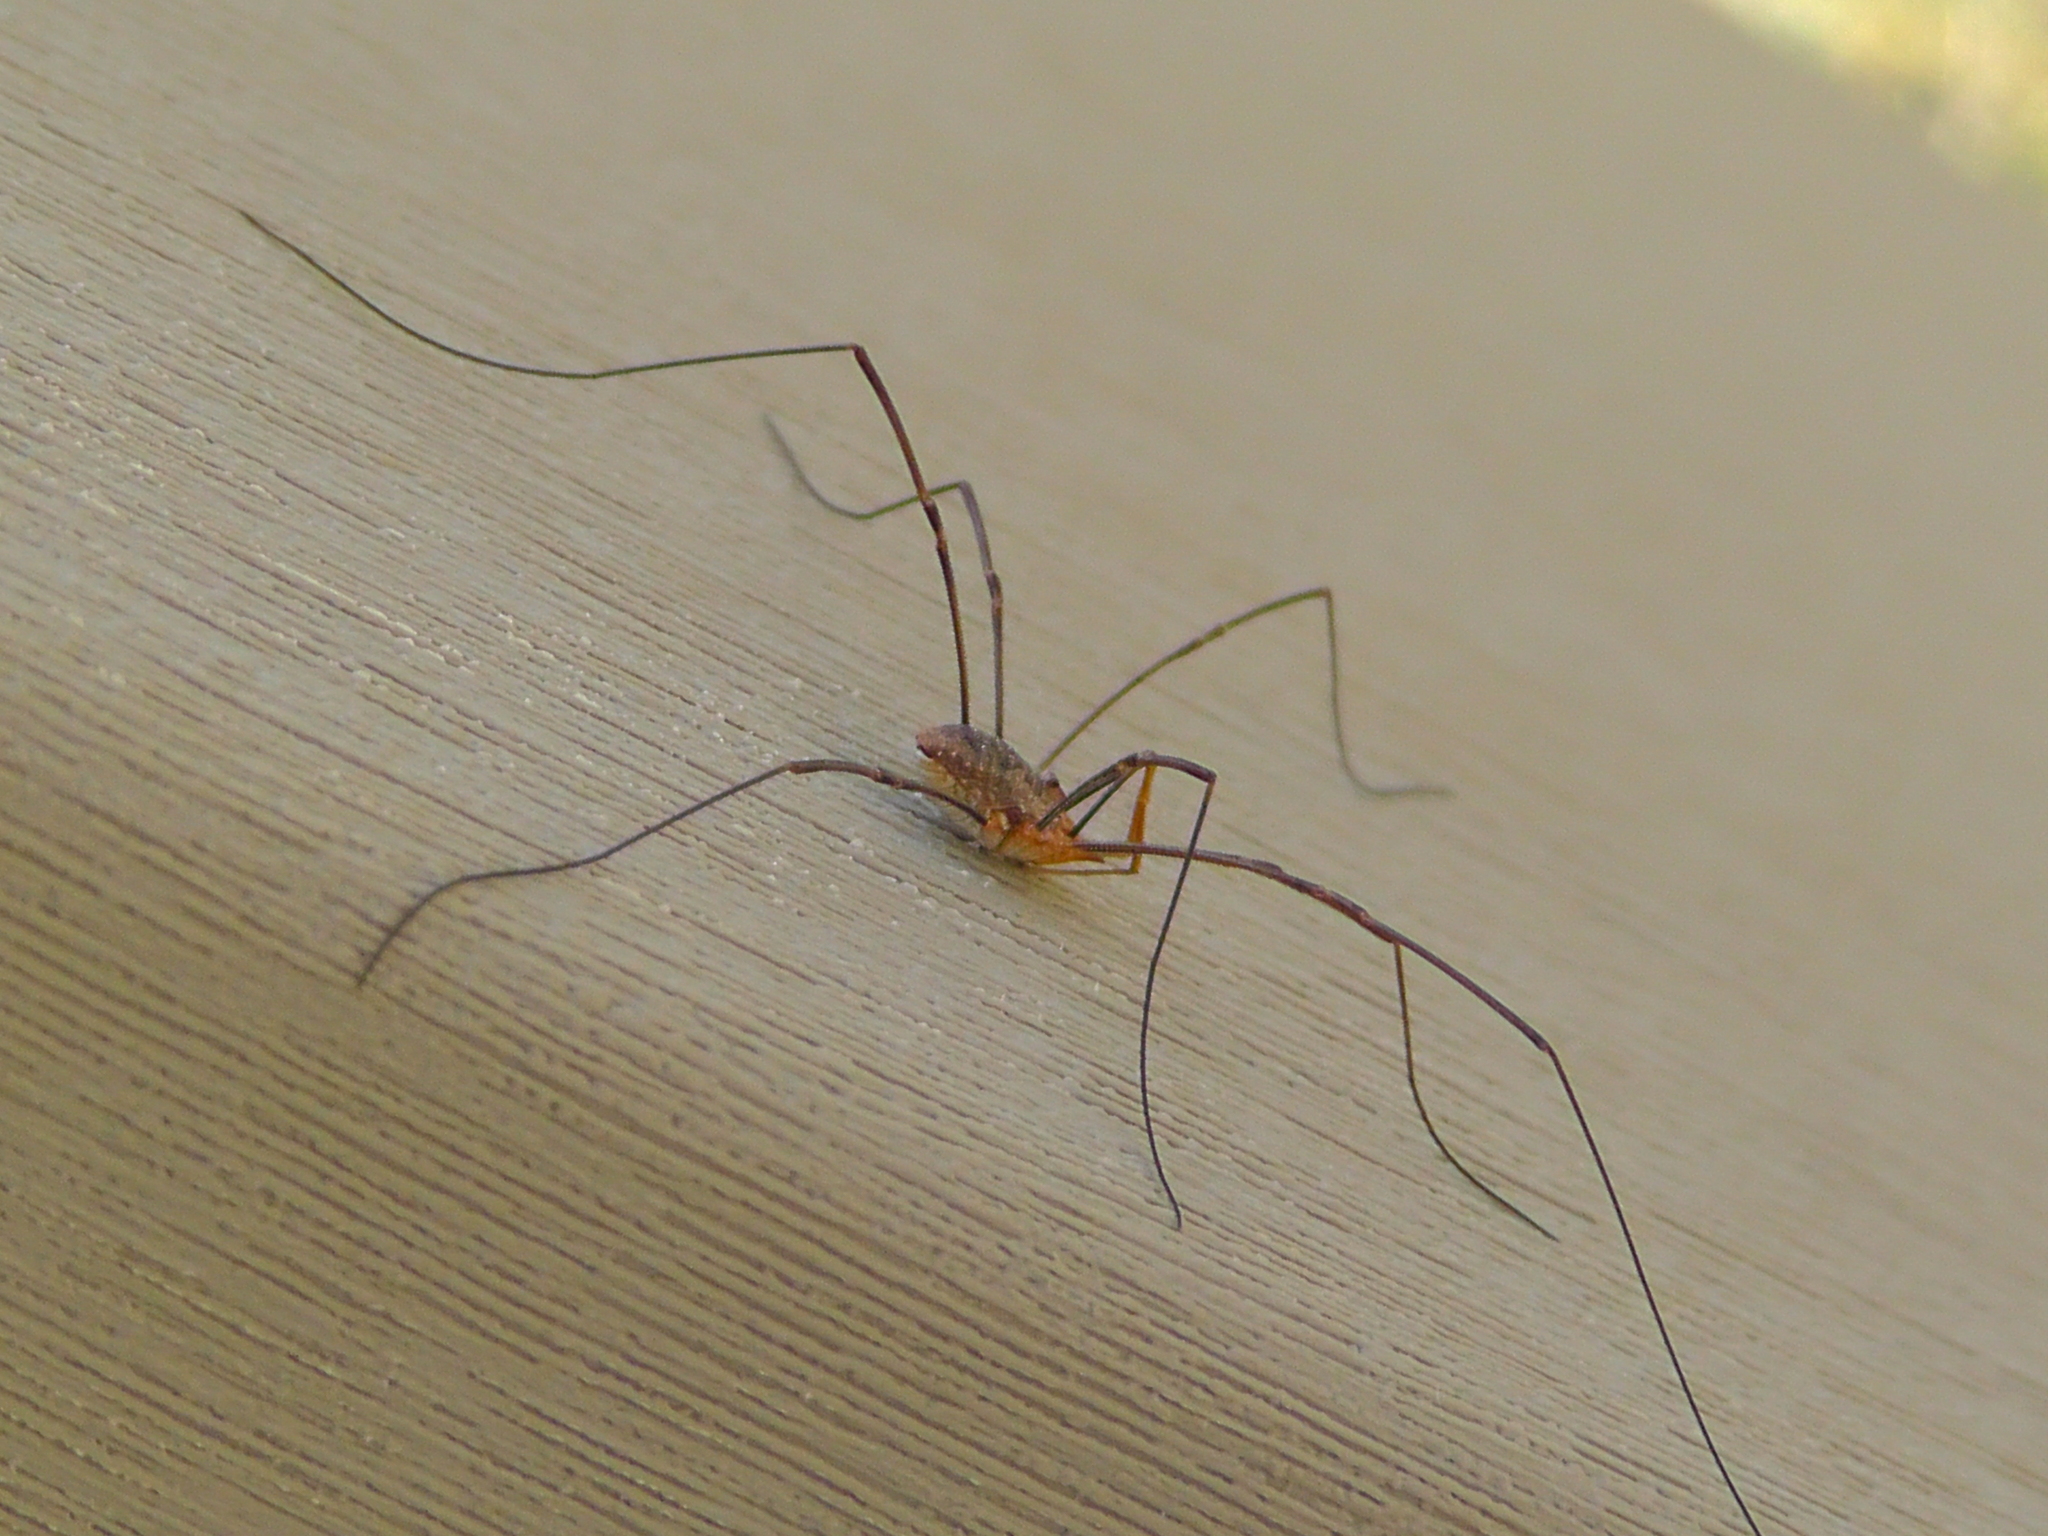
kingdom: Animalia
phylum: Arthropoda
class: Arachnida
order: Opiliones
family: Phalangiidae
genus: Phalangium
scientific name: Phalangium opilio
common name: Daddy longleg
